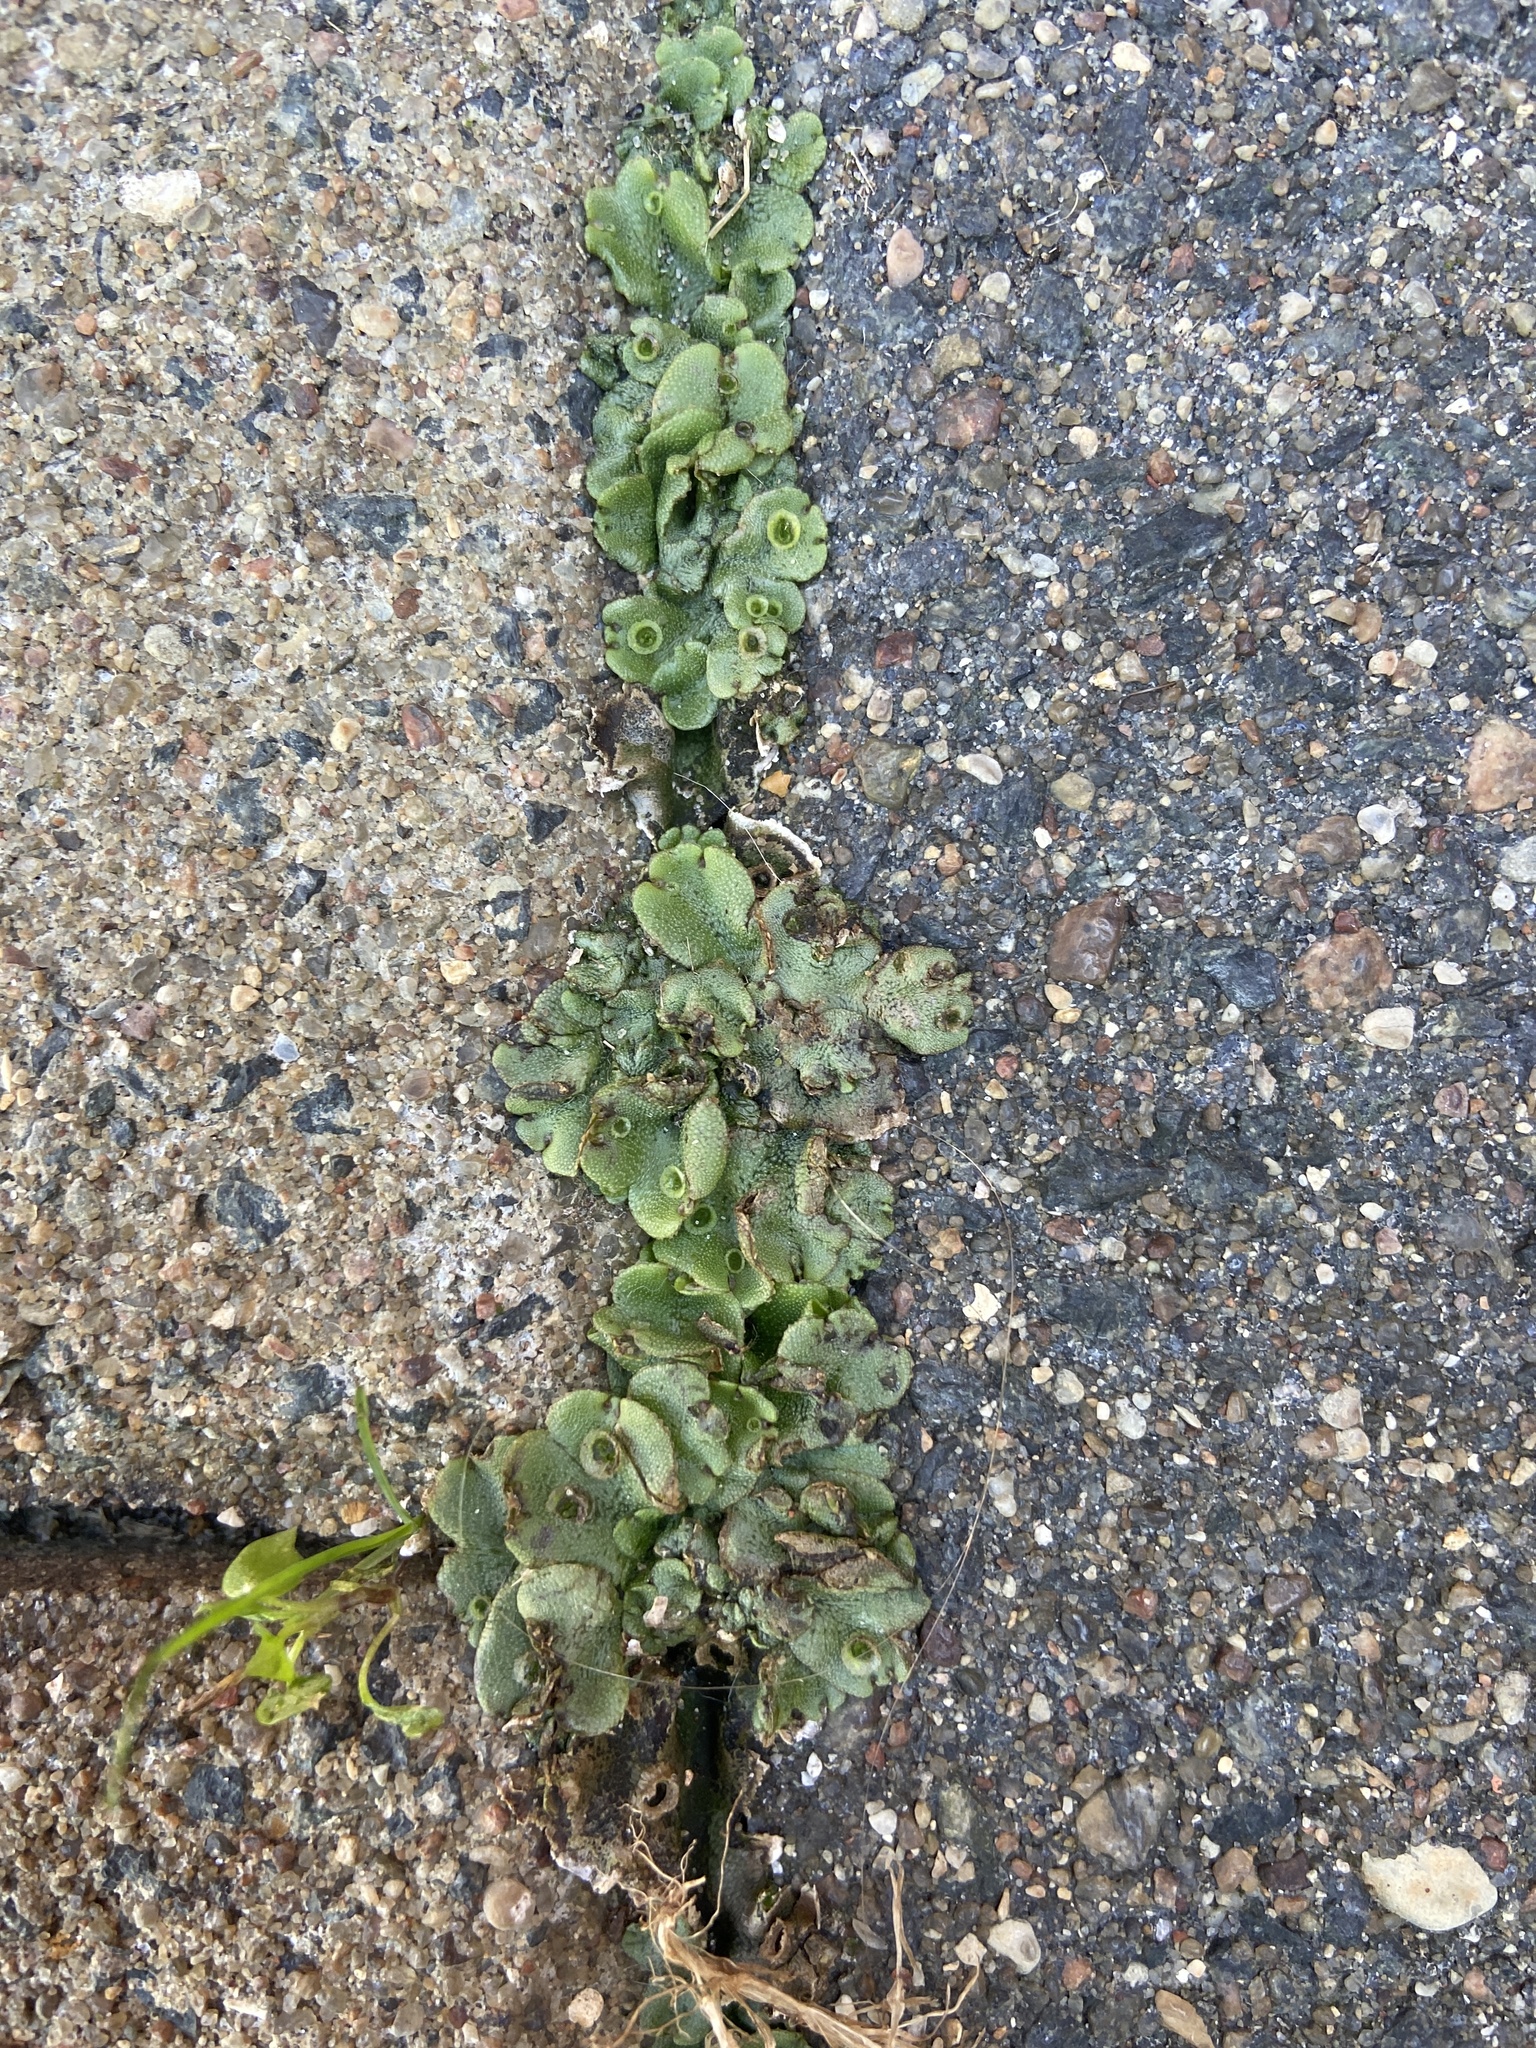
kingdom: Plantae
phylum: Marchantiophyta
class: Marchantiopsida
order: Marchantiales
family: Marchantiaceae
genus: Marchantia
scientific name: Marchantia polymorpha
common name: Common liverwort
